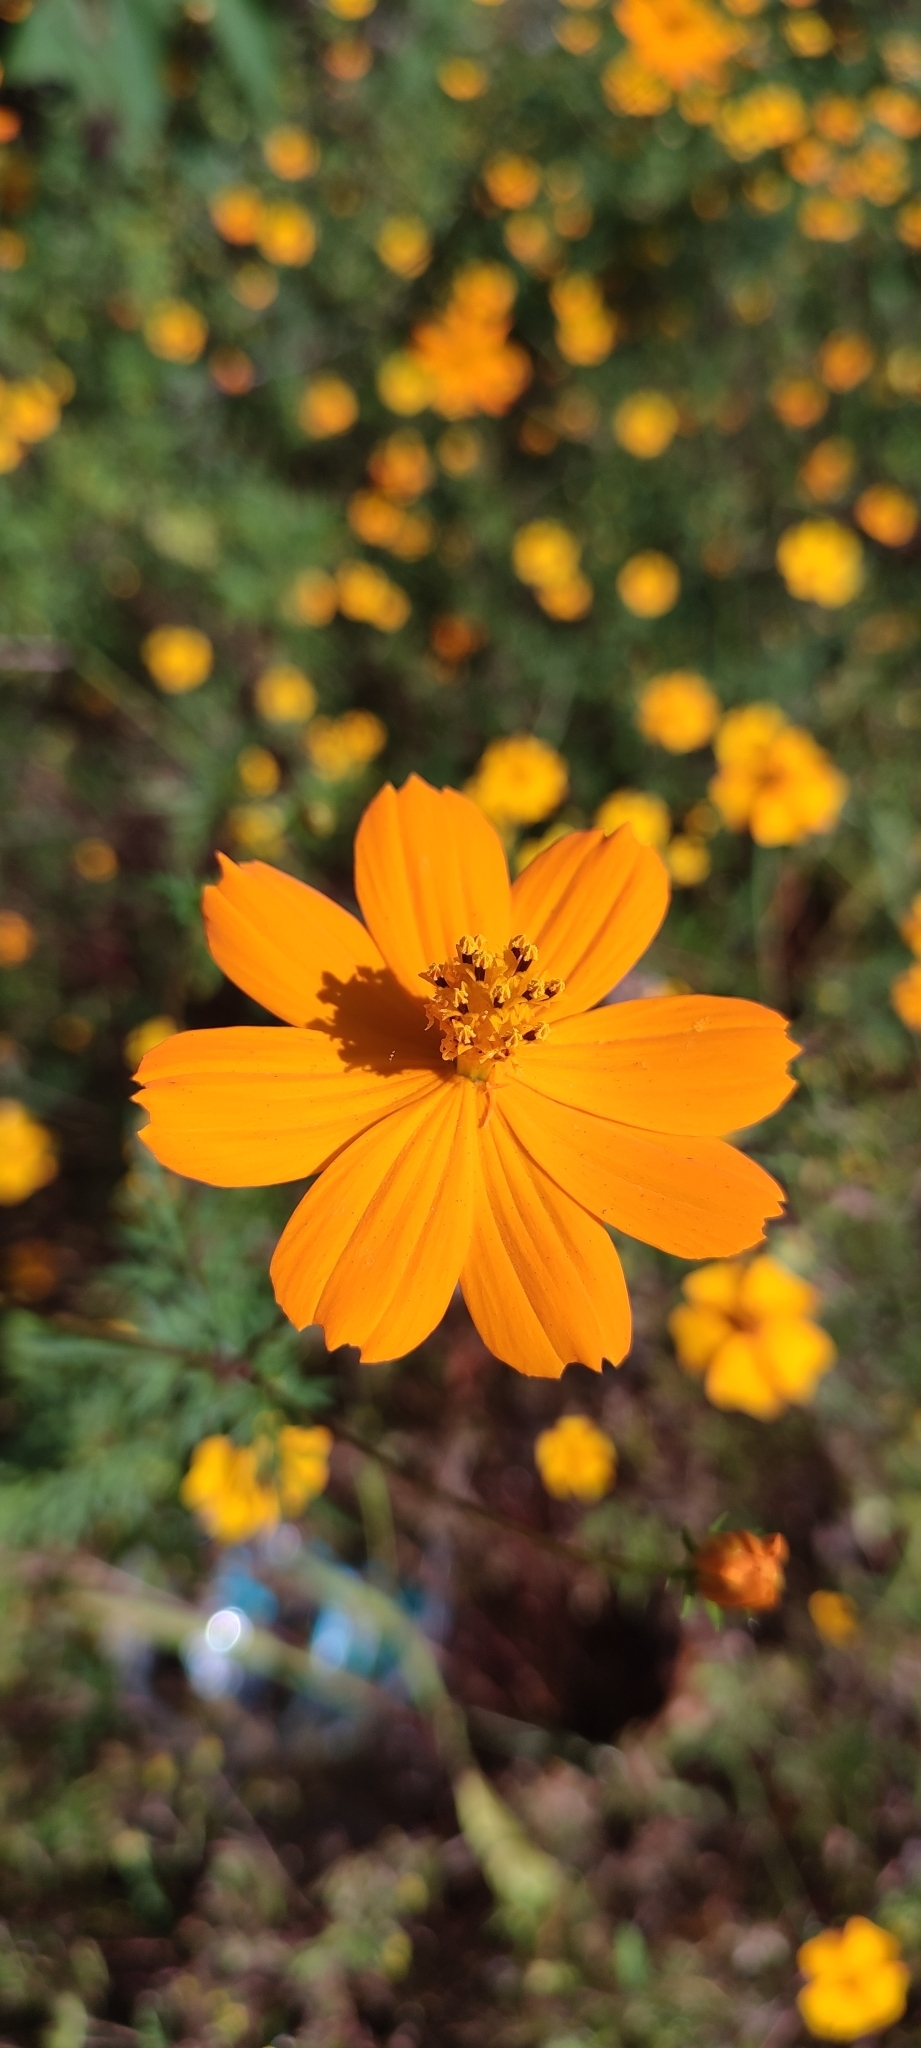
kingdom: Plantae
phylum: Tracheophyta
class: Magnoliopsida
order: Asterales
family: Asteraceae
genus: Cosmos
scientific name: Cosmos sulphureus
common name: Sulphur cosmos
